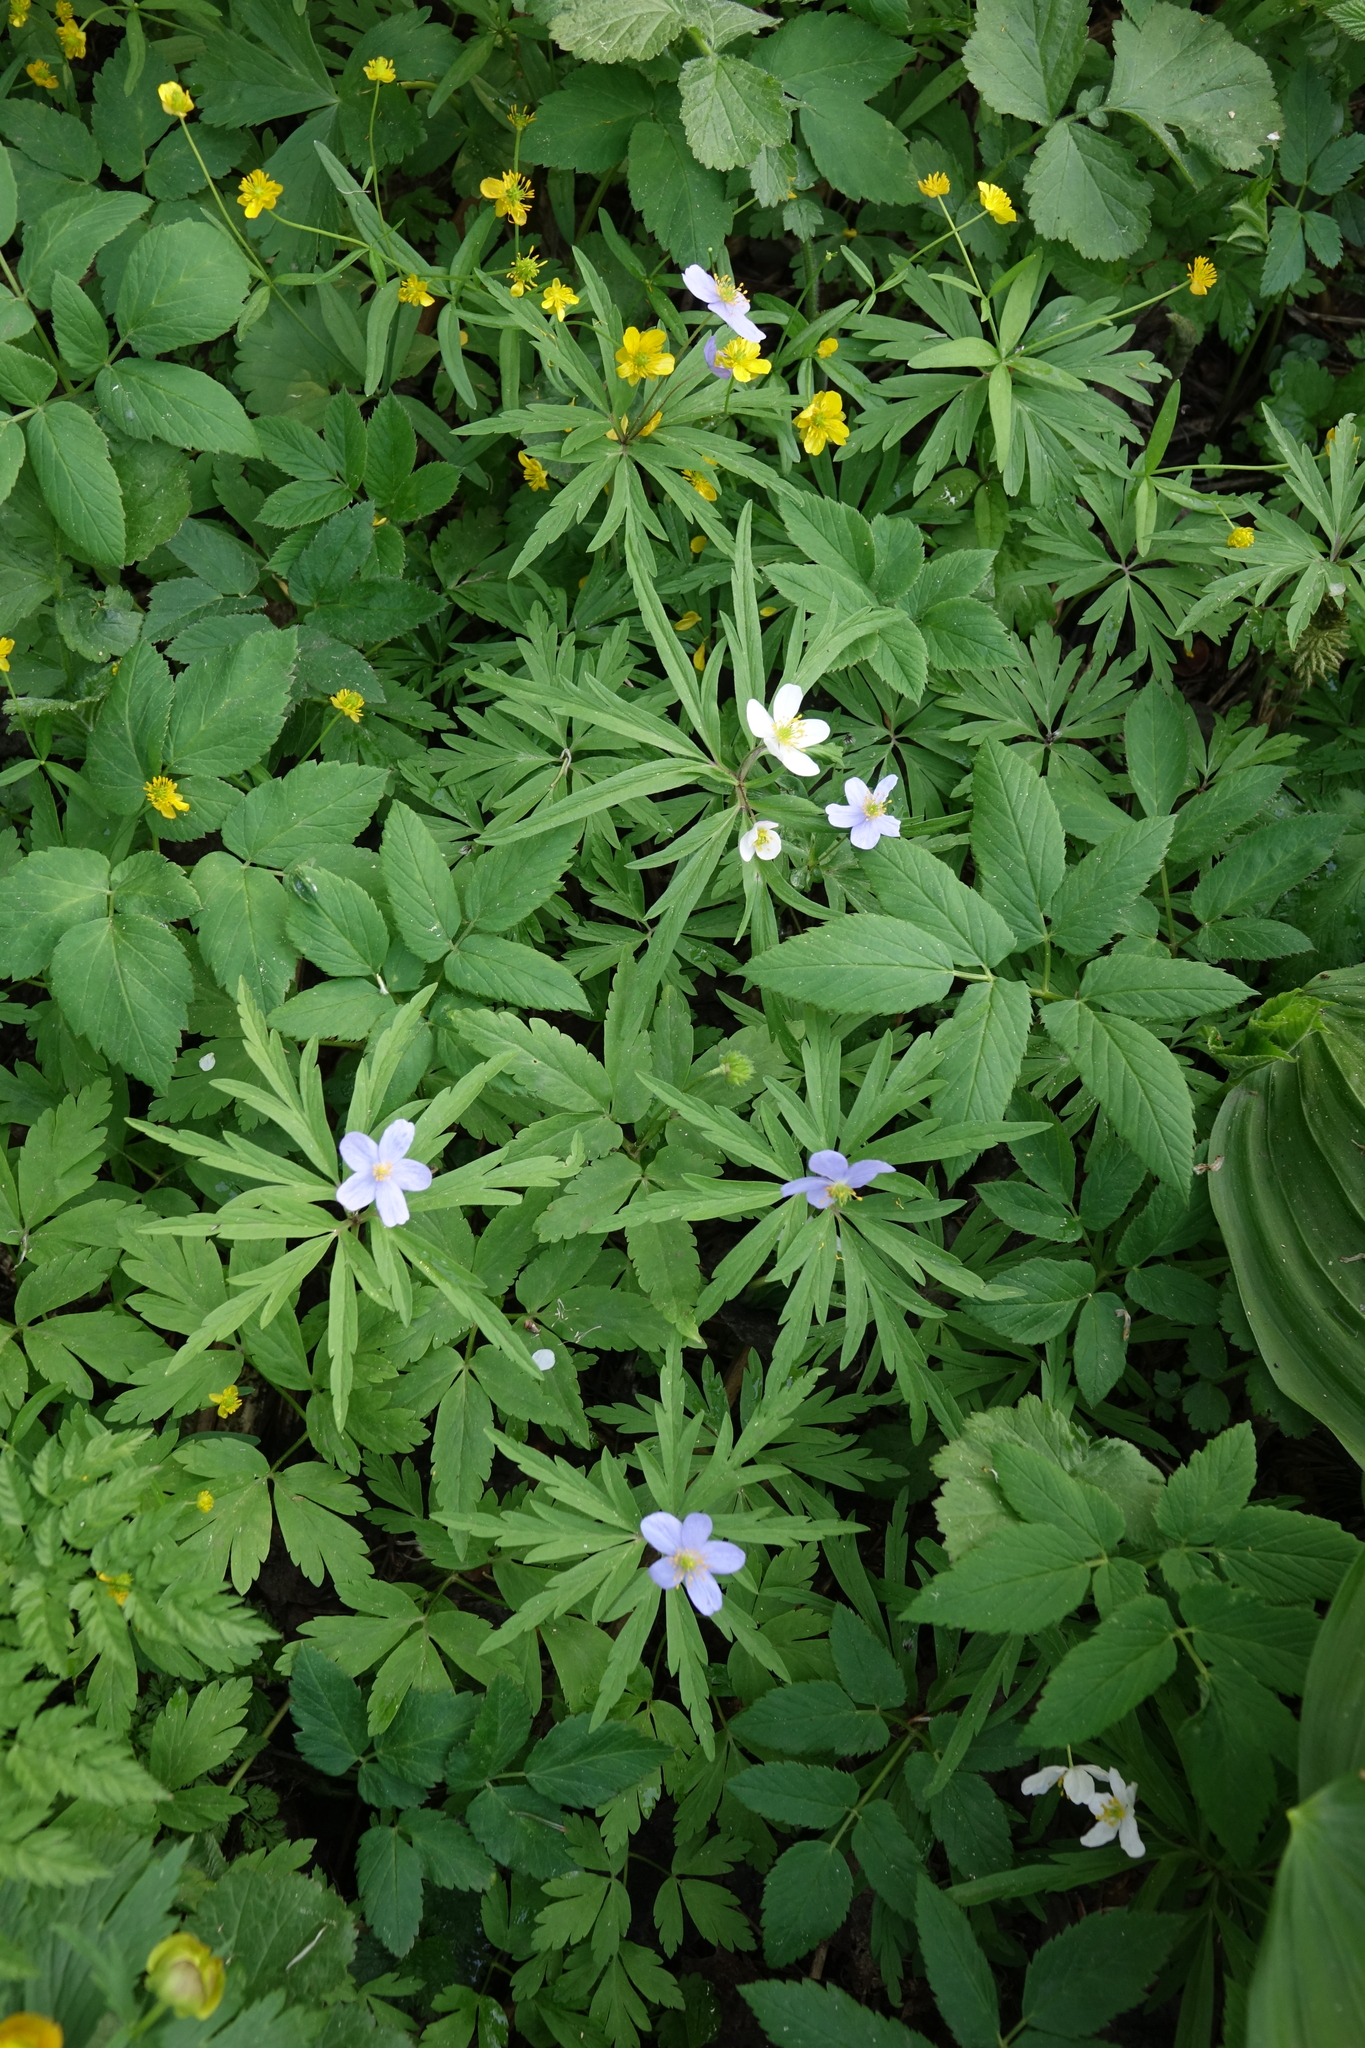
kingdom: Plantae
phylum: Tracheophyta
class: Magnoliopsida
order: Ranunculales
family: Ranunculaceae
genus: Anemone
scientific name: Anemone caerulea
